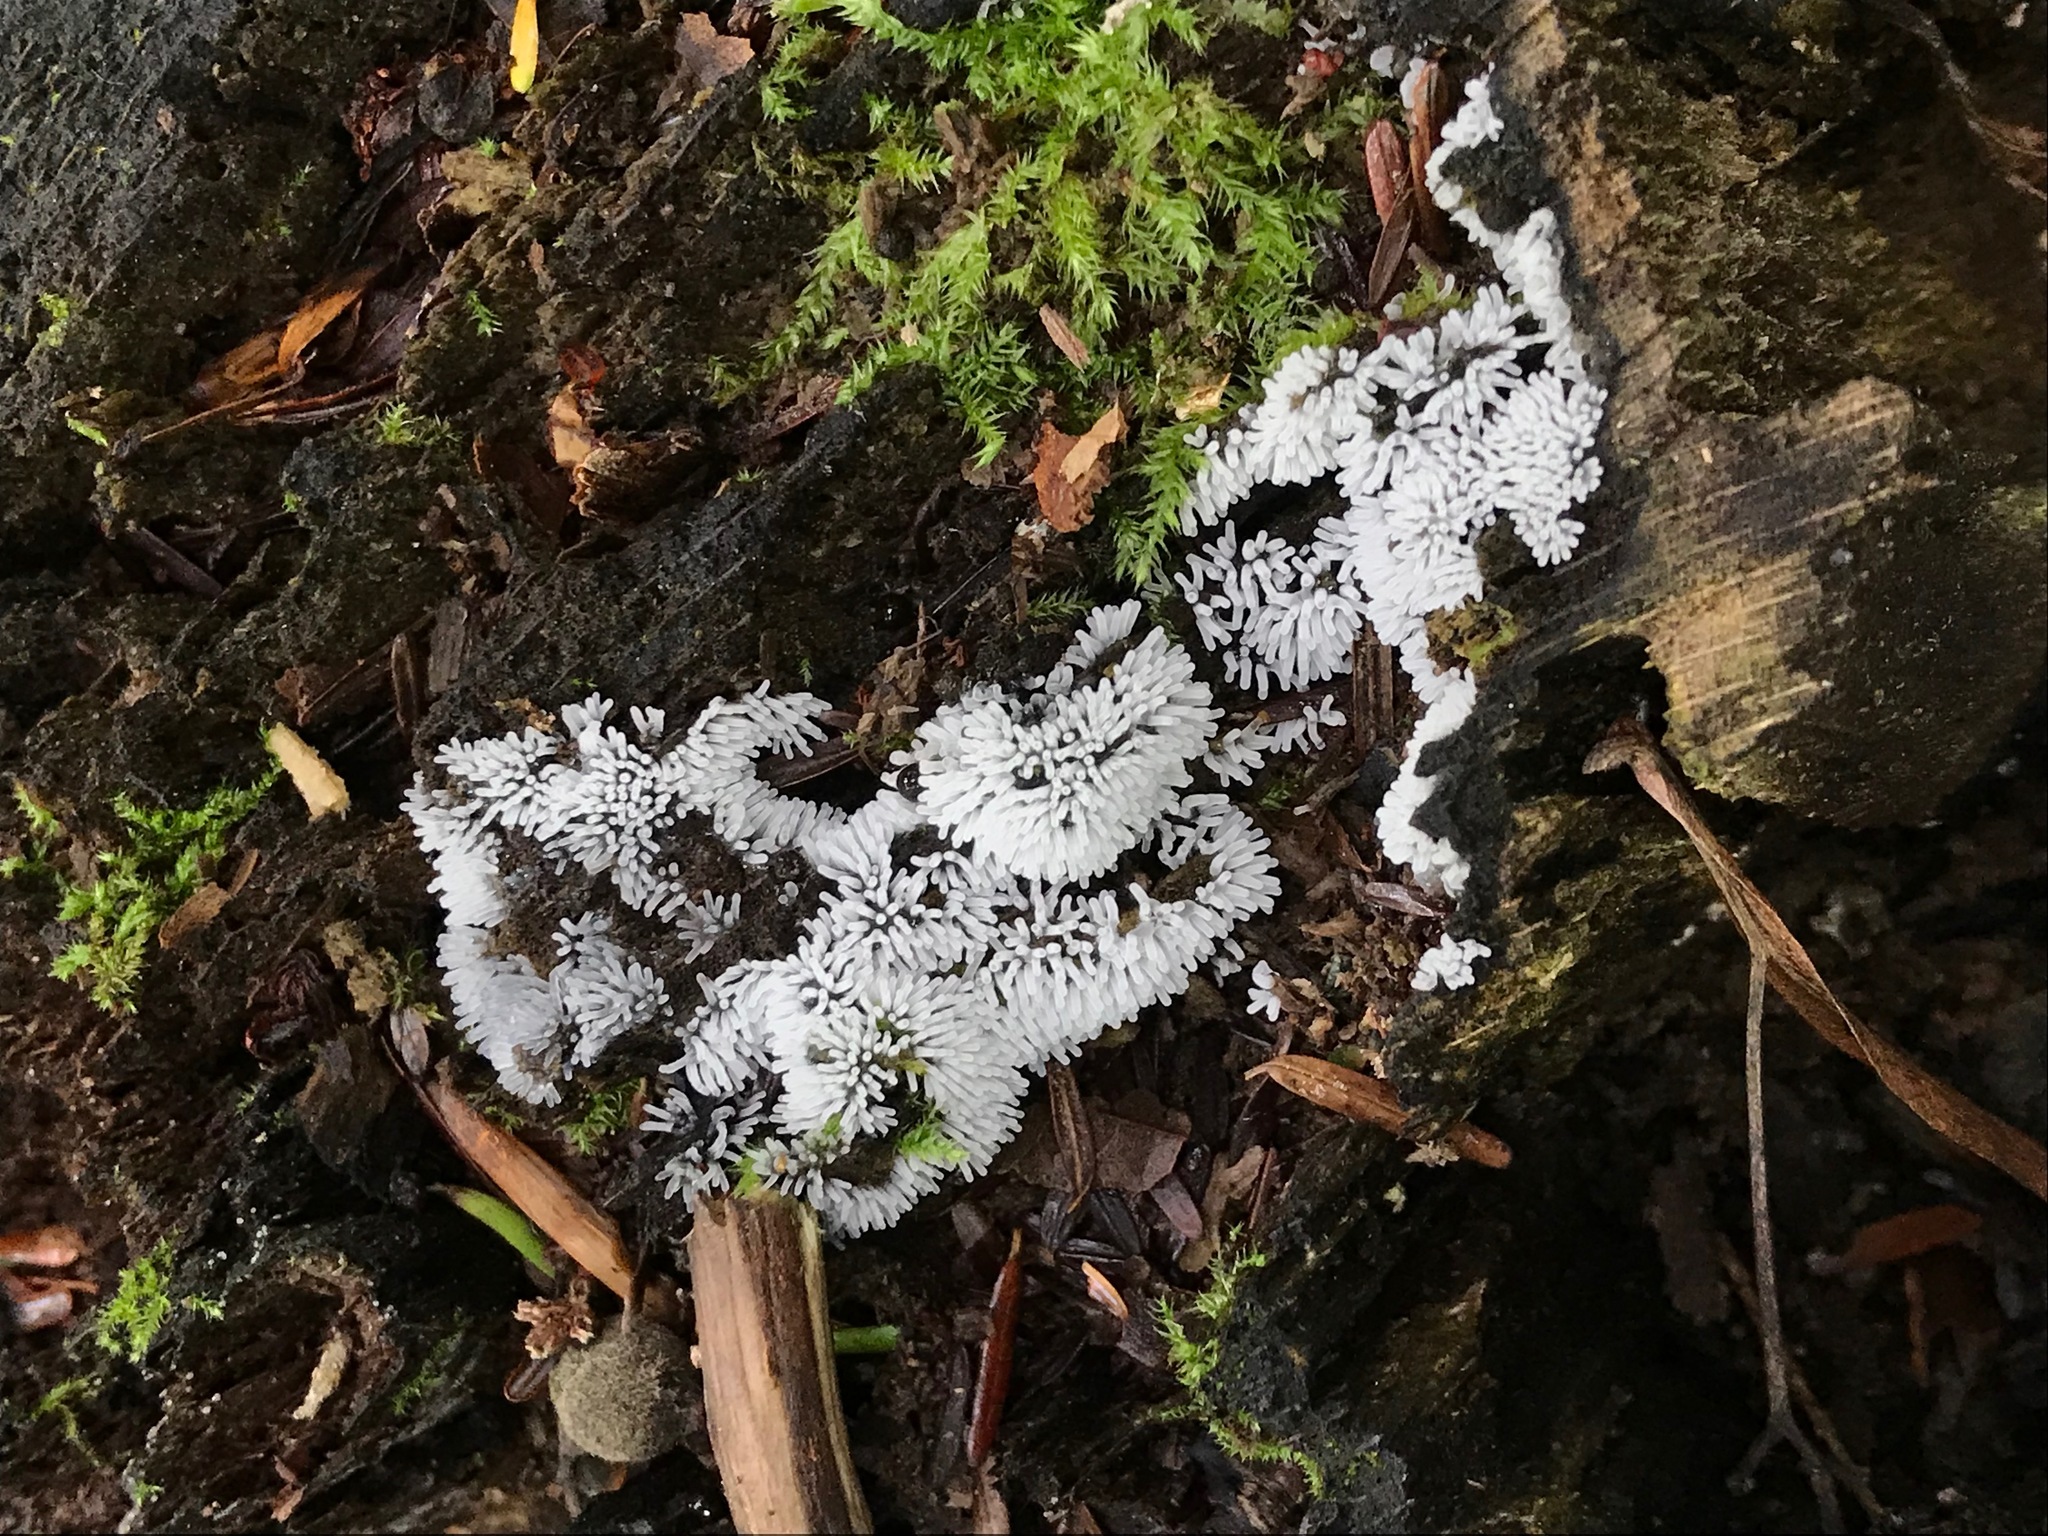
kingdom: Protozoa
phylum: Mycetozoa
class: Protosteliomycetes
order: Ceratiomyxales
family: Ceratiomyxaceae
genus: Ceratiomyxa
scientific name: Ceratiomyxa fruticulosa
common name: Honeycomb coral slime mold
